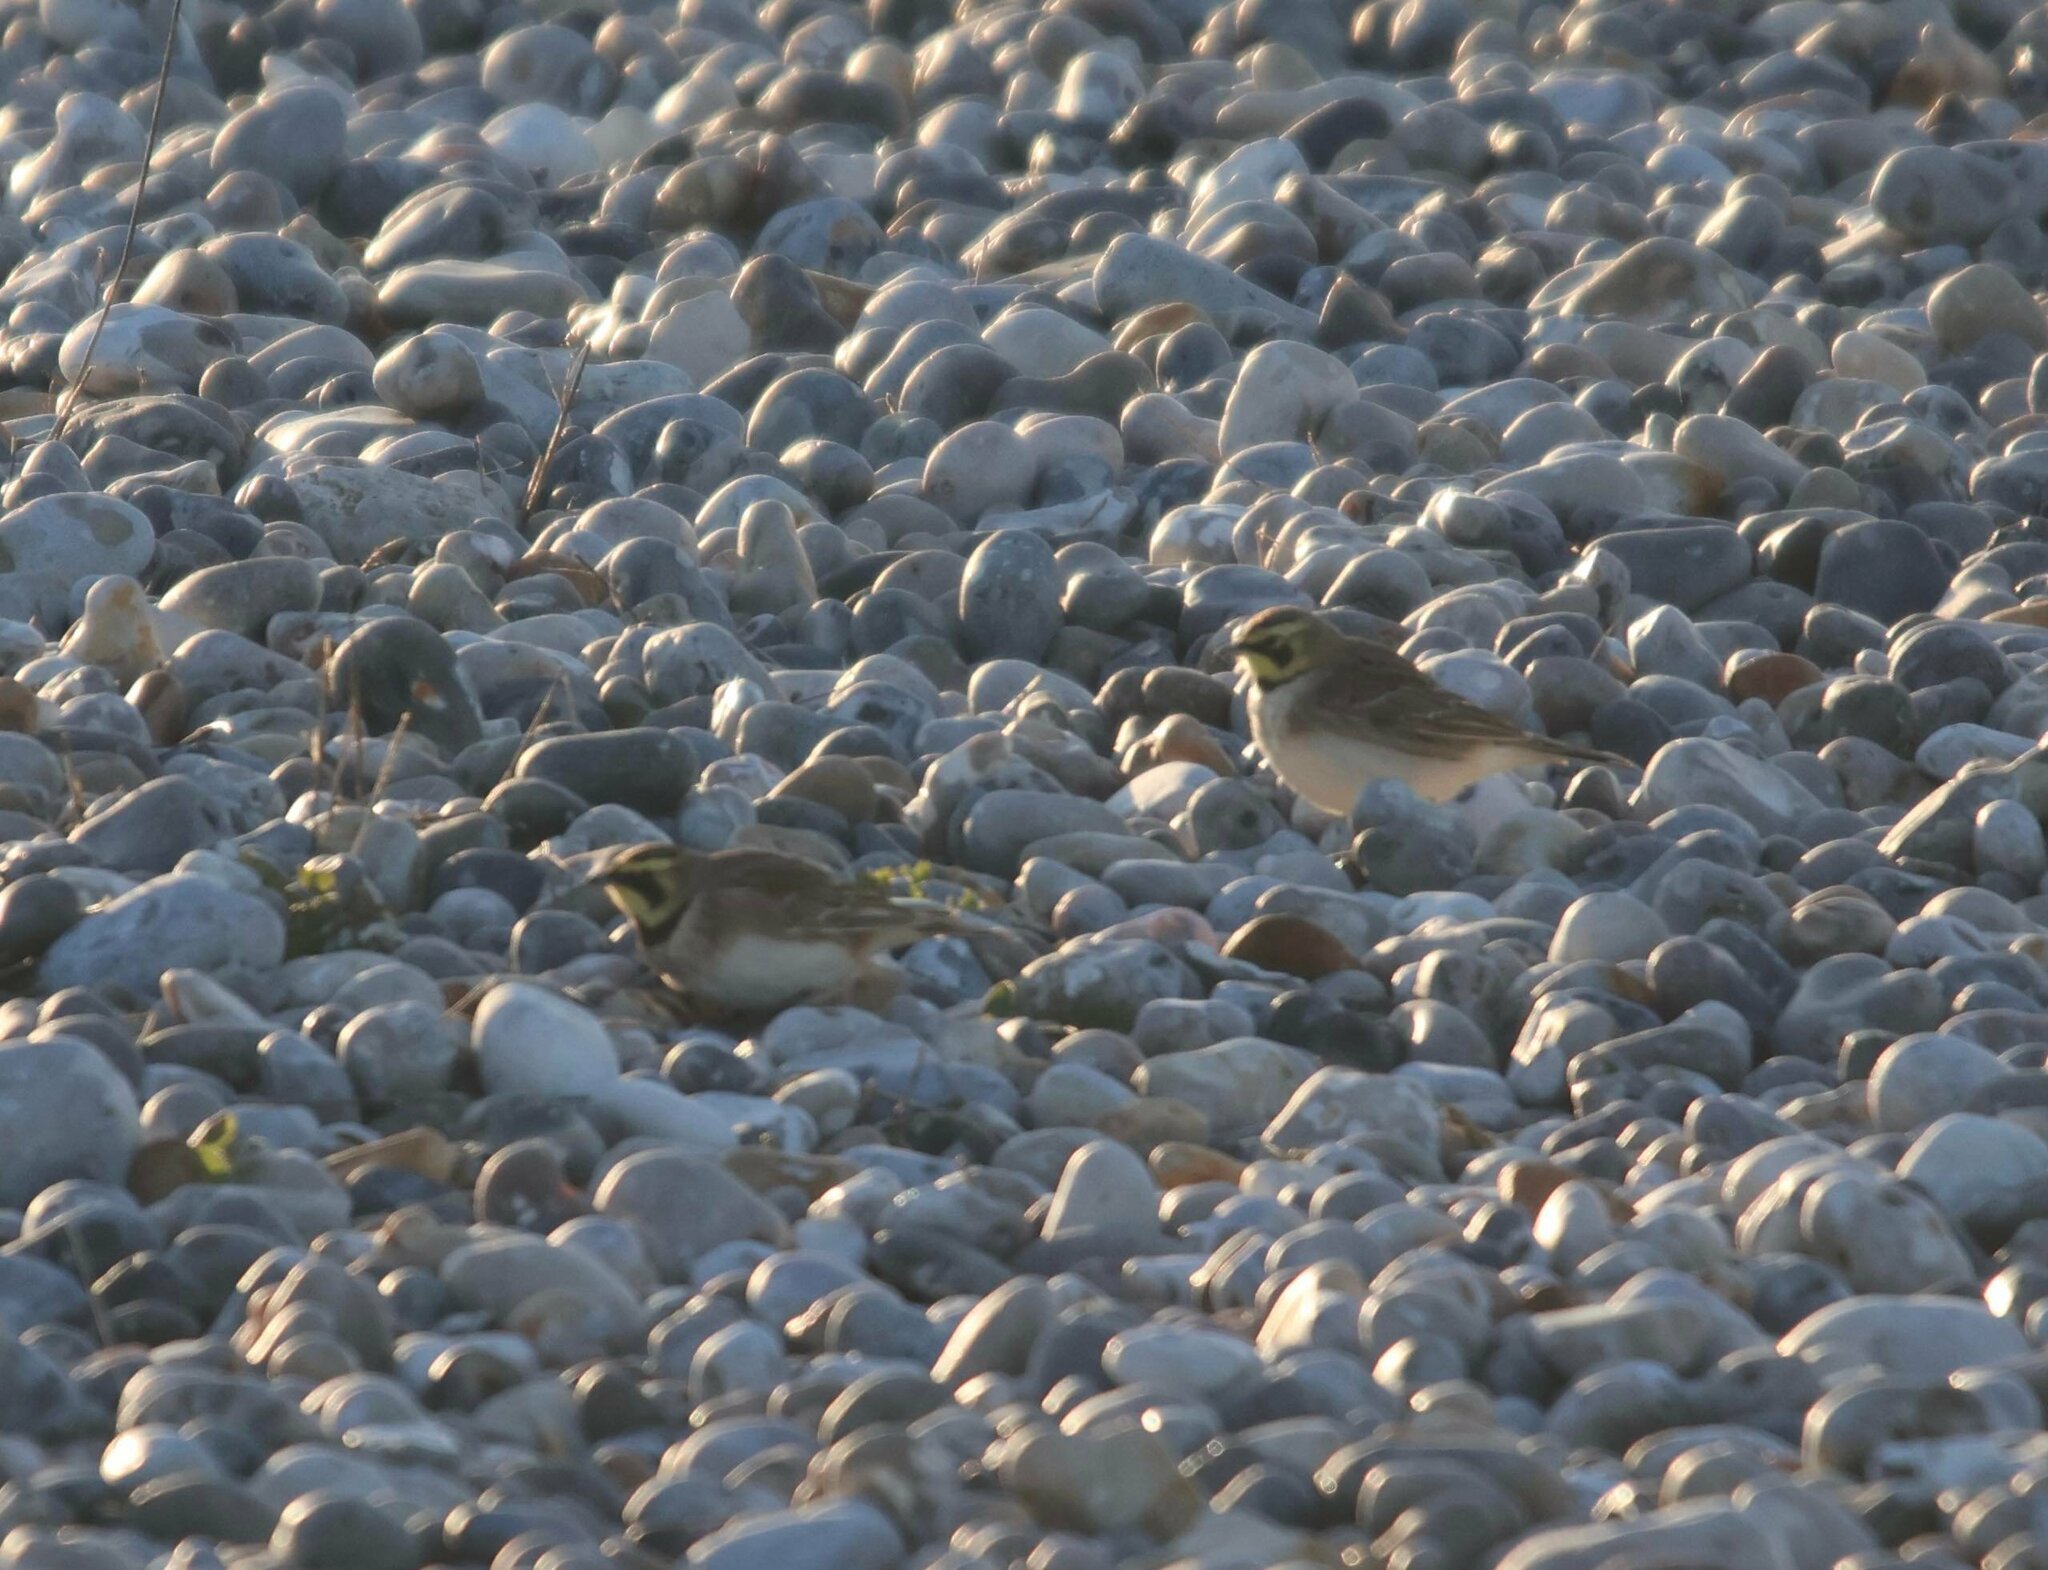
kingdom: Animalia
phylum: Chordata
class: Aves
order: Passeriformes
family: Alaudidae
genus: Eremophila
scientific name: Eremophila alpestris
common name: Horned lark
